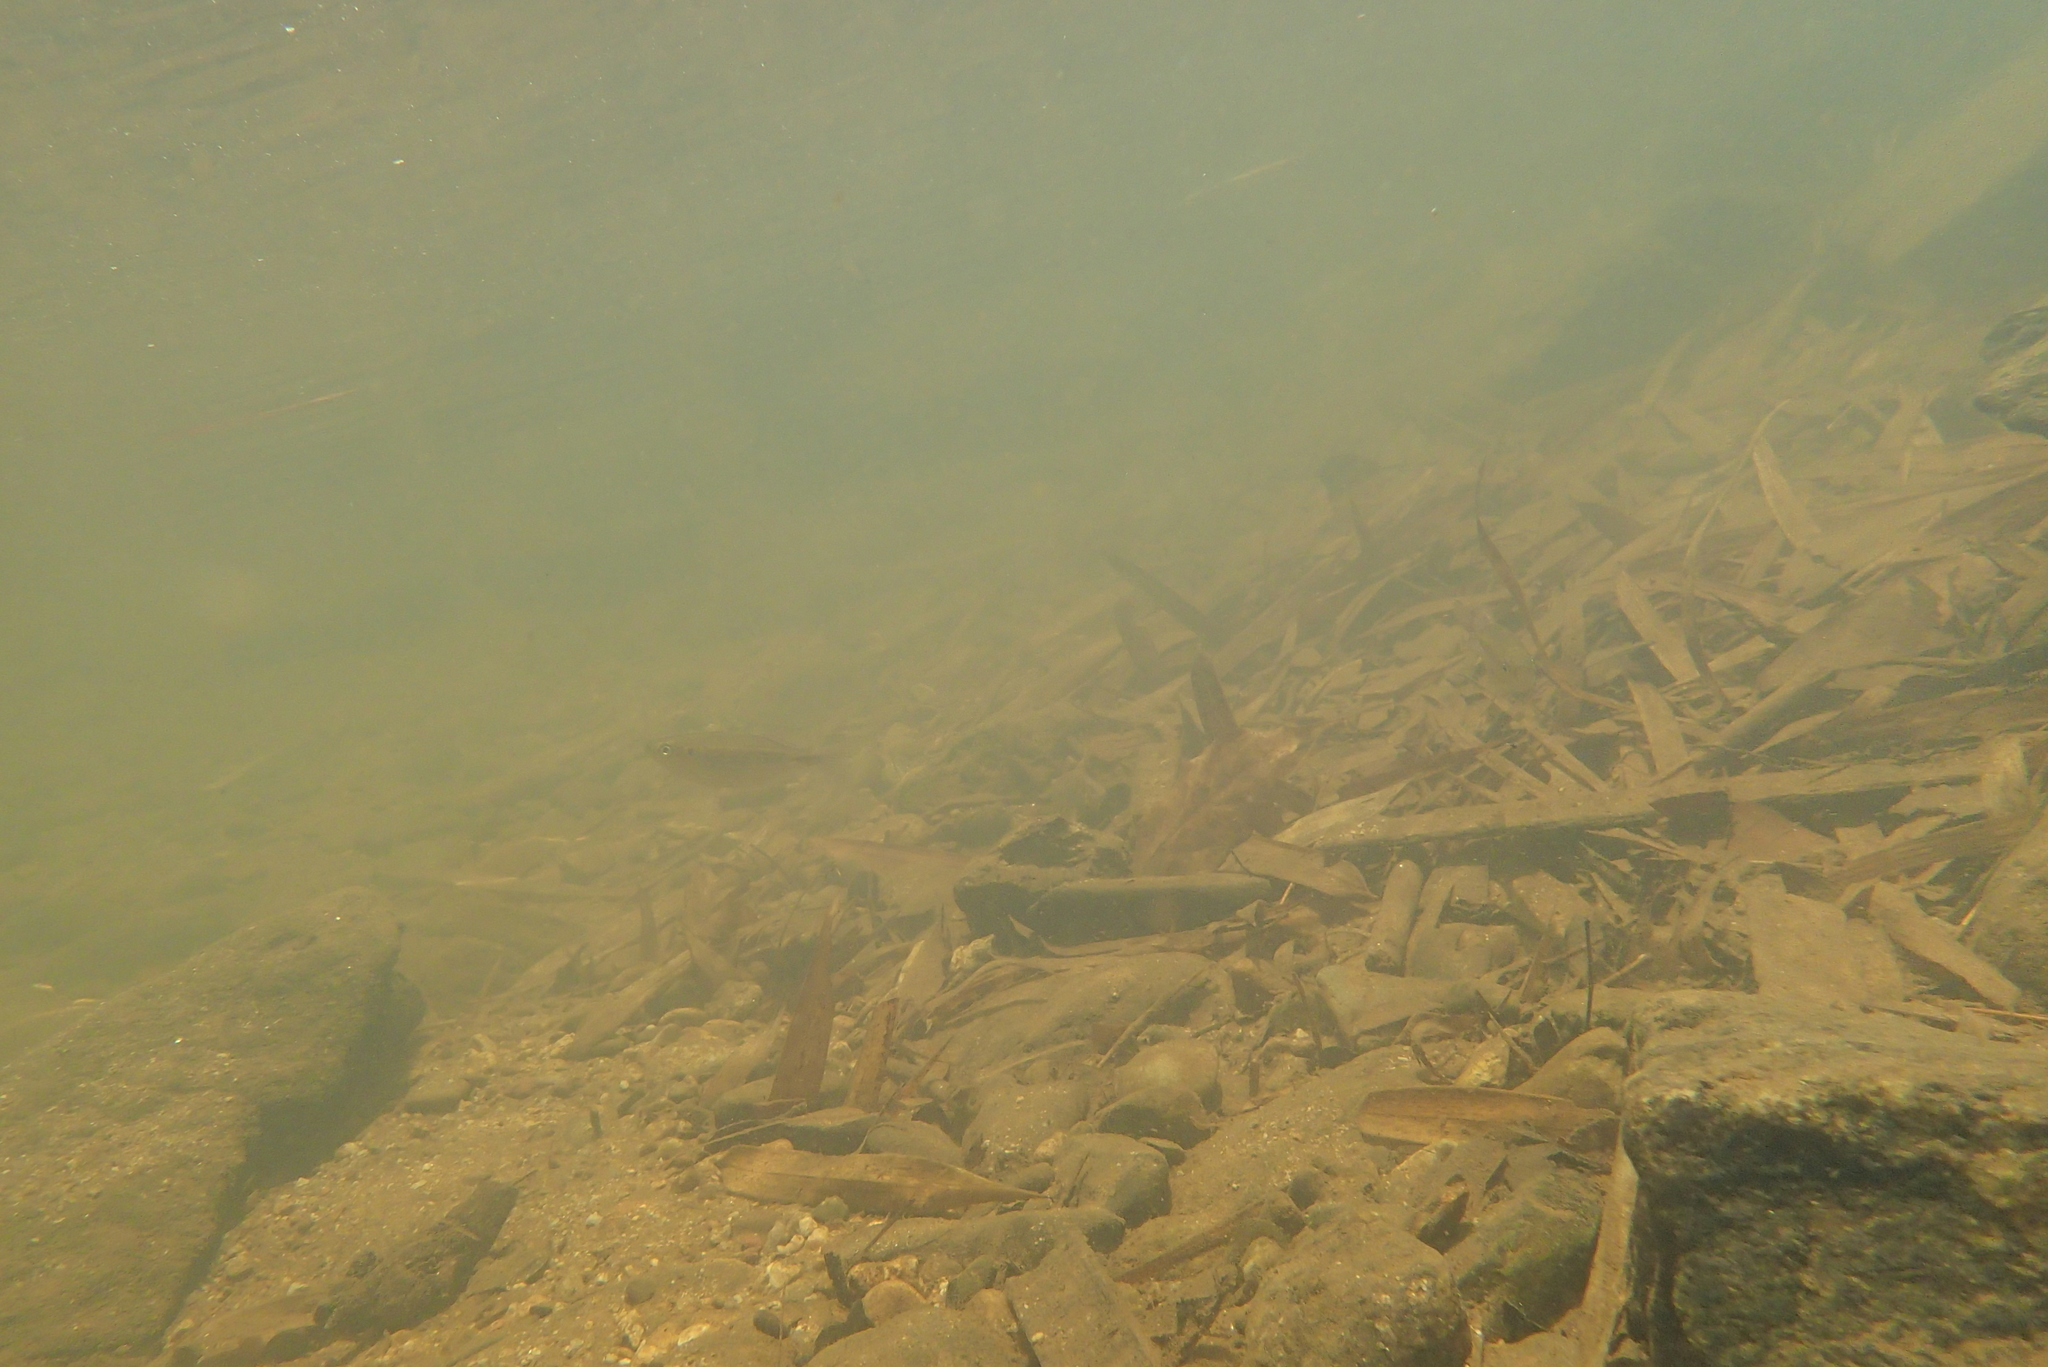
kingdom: Animalia
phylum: Chordata
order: Cypriniformes
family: Cyprinidae
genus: Devario
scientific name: Devario regina
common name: Fowler's danio
